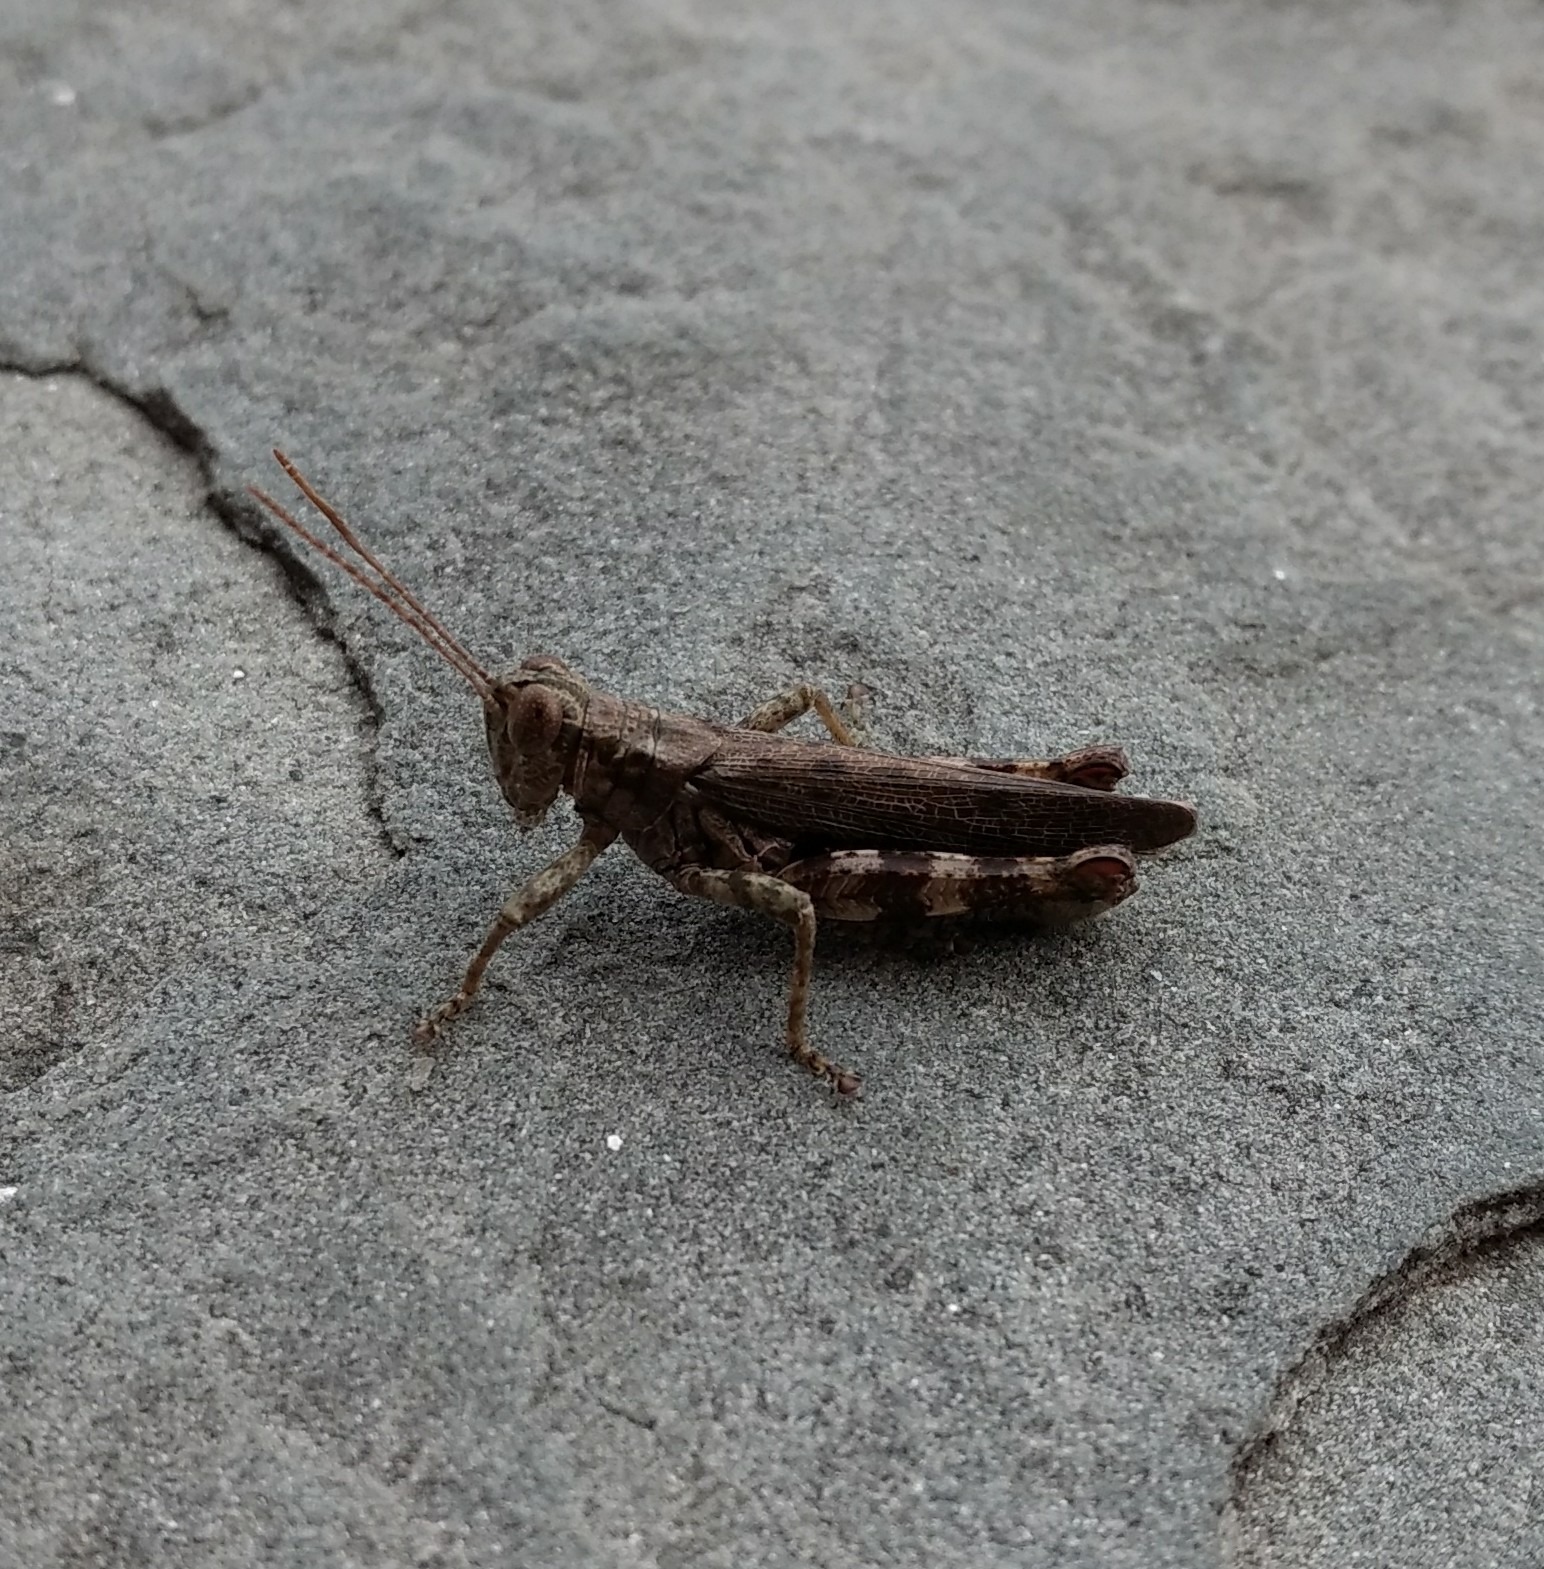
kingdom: Animalia
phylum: Arthropoda
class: Insecta
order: Orthoptera
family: Acrididae
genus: Melanoplus
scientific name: Melanoplus punctulatus
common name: Pine-tree spur-throat grasshopper
